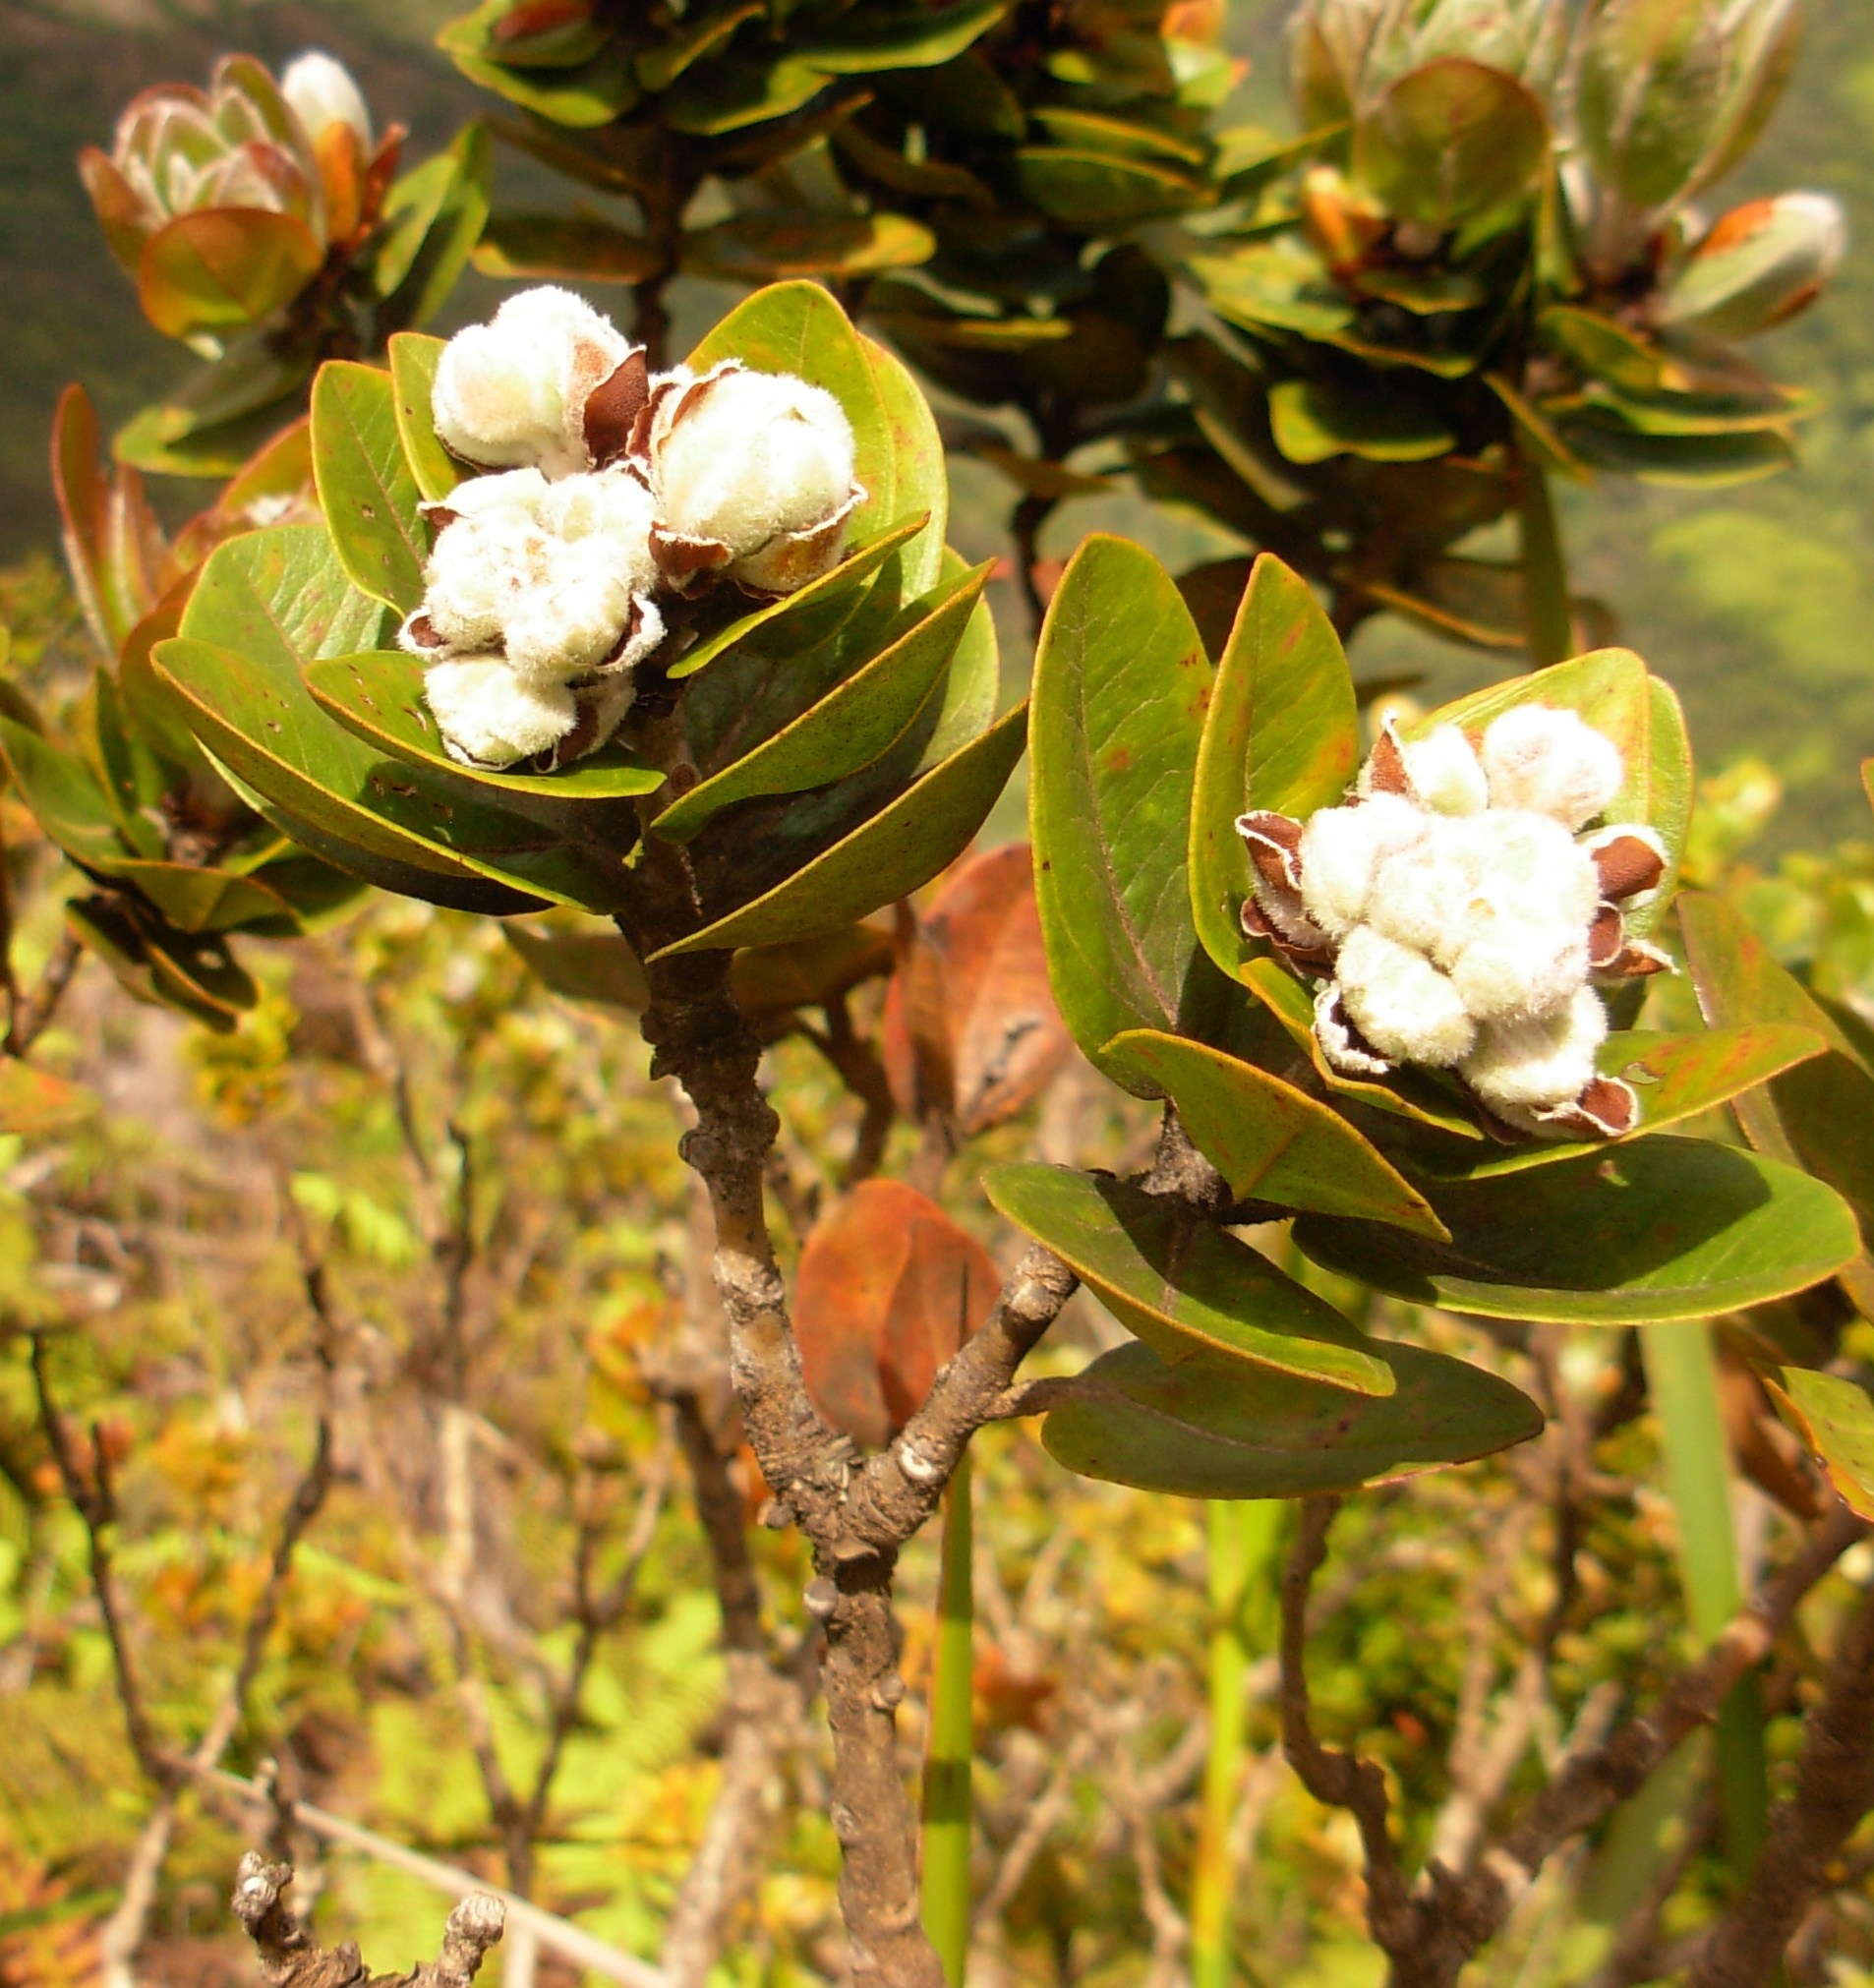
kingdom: Plantae
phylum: Tracheophyta
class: Magnoliopsida
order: Myrtales
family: Myrtaceae
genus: Metrosideros
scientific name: Metrosideros polymorpha
